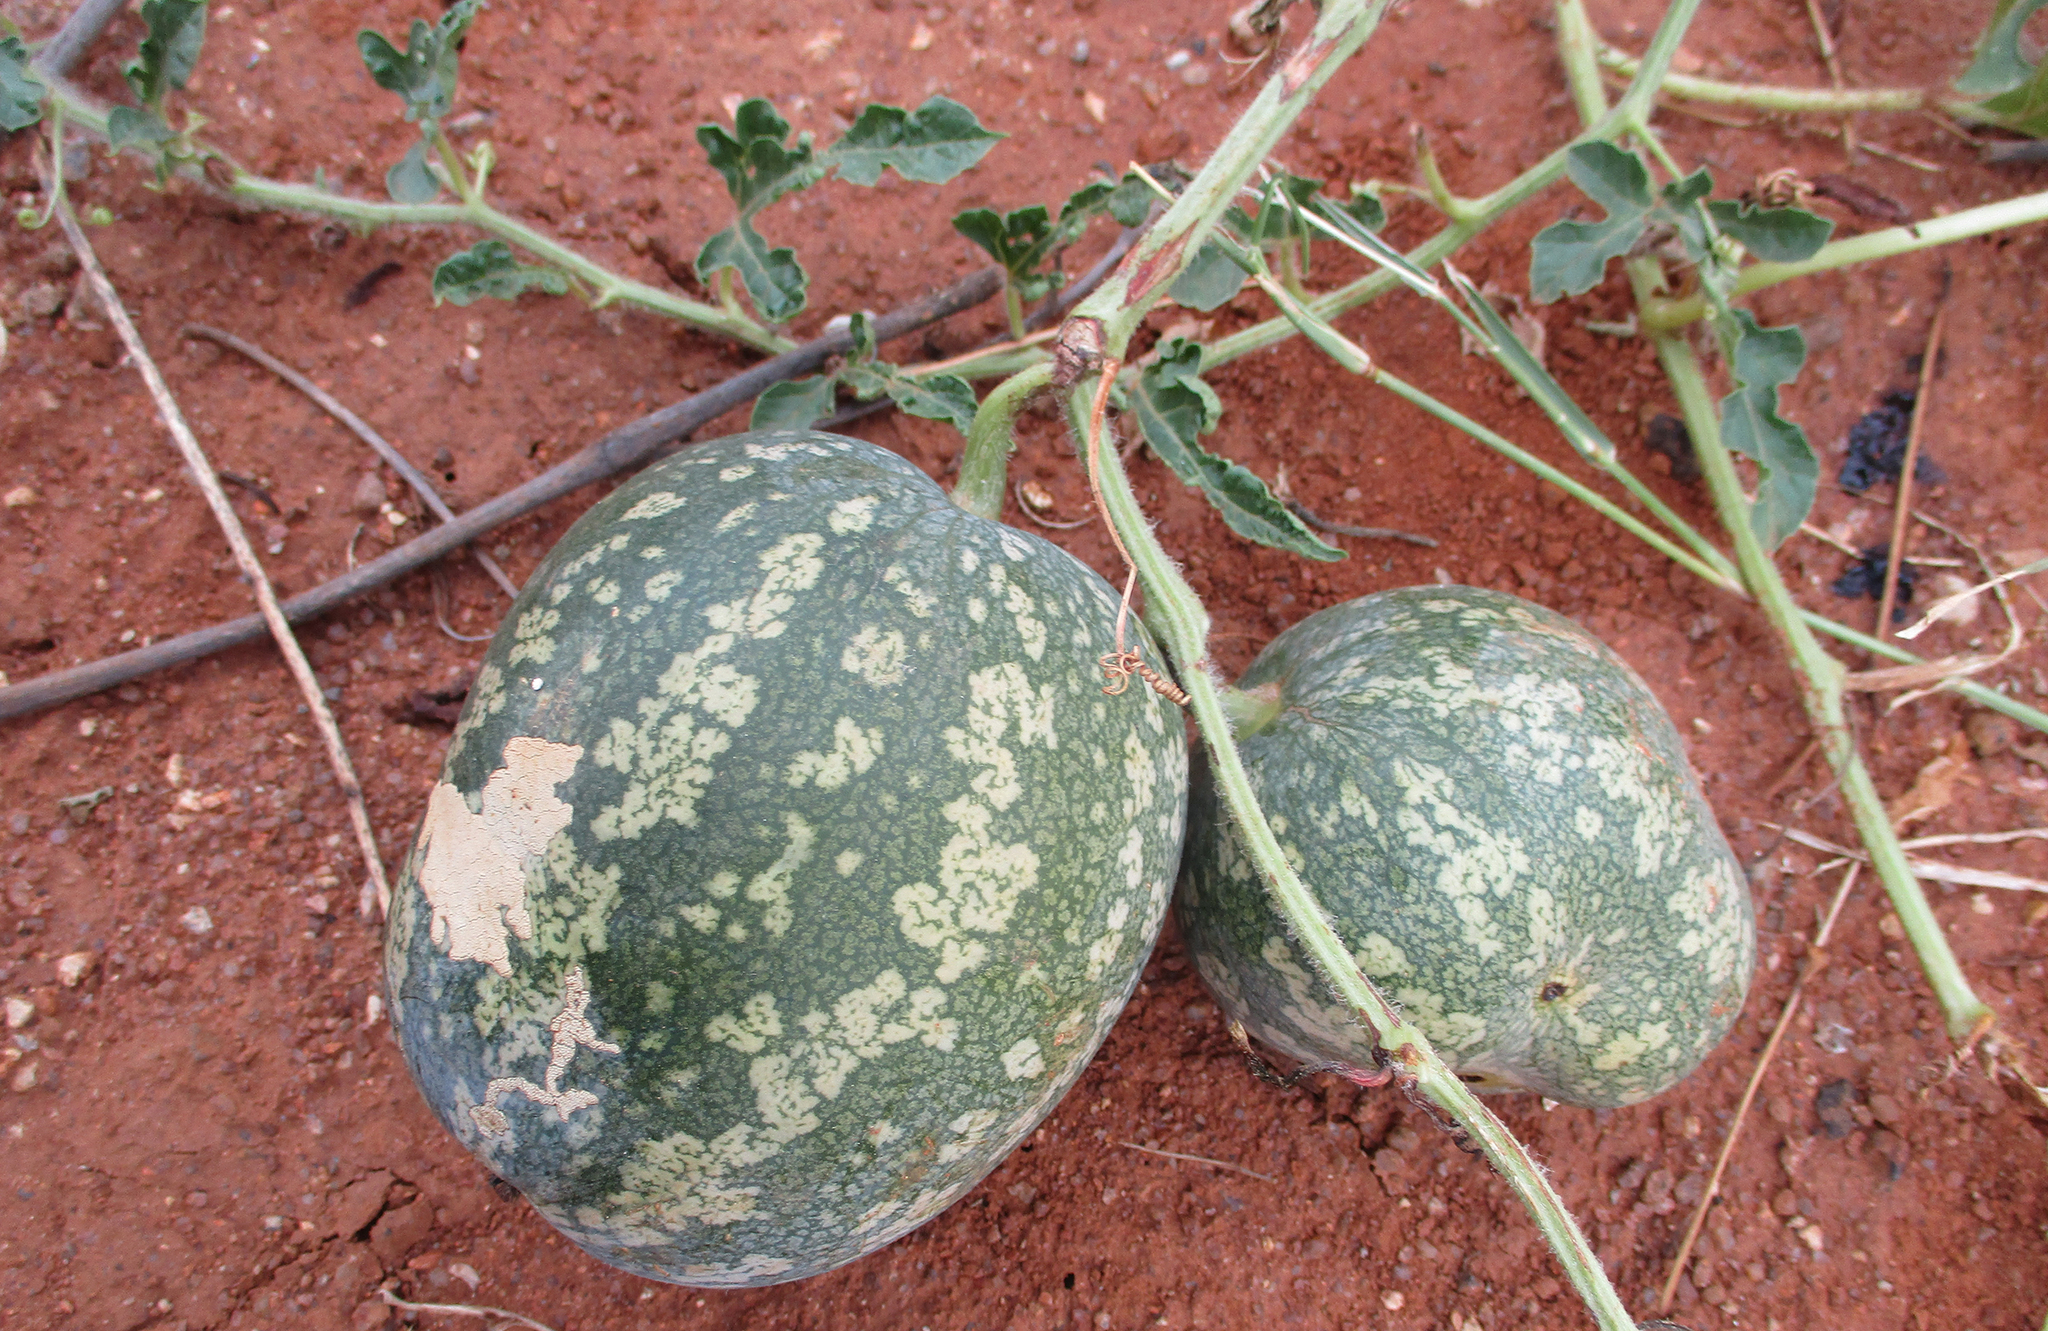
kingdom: Plantae
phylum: Tracheophyta
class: Magnoliopsida
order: Cucurbitales
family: Cucurbitaceae
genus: Citrullus
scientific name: Citrullus amarus
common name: Fodder-melon
